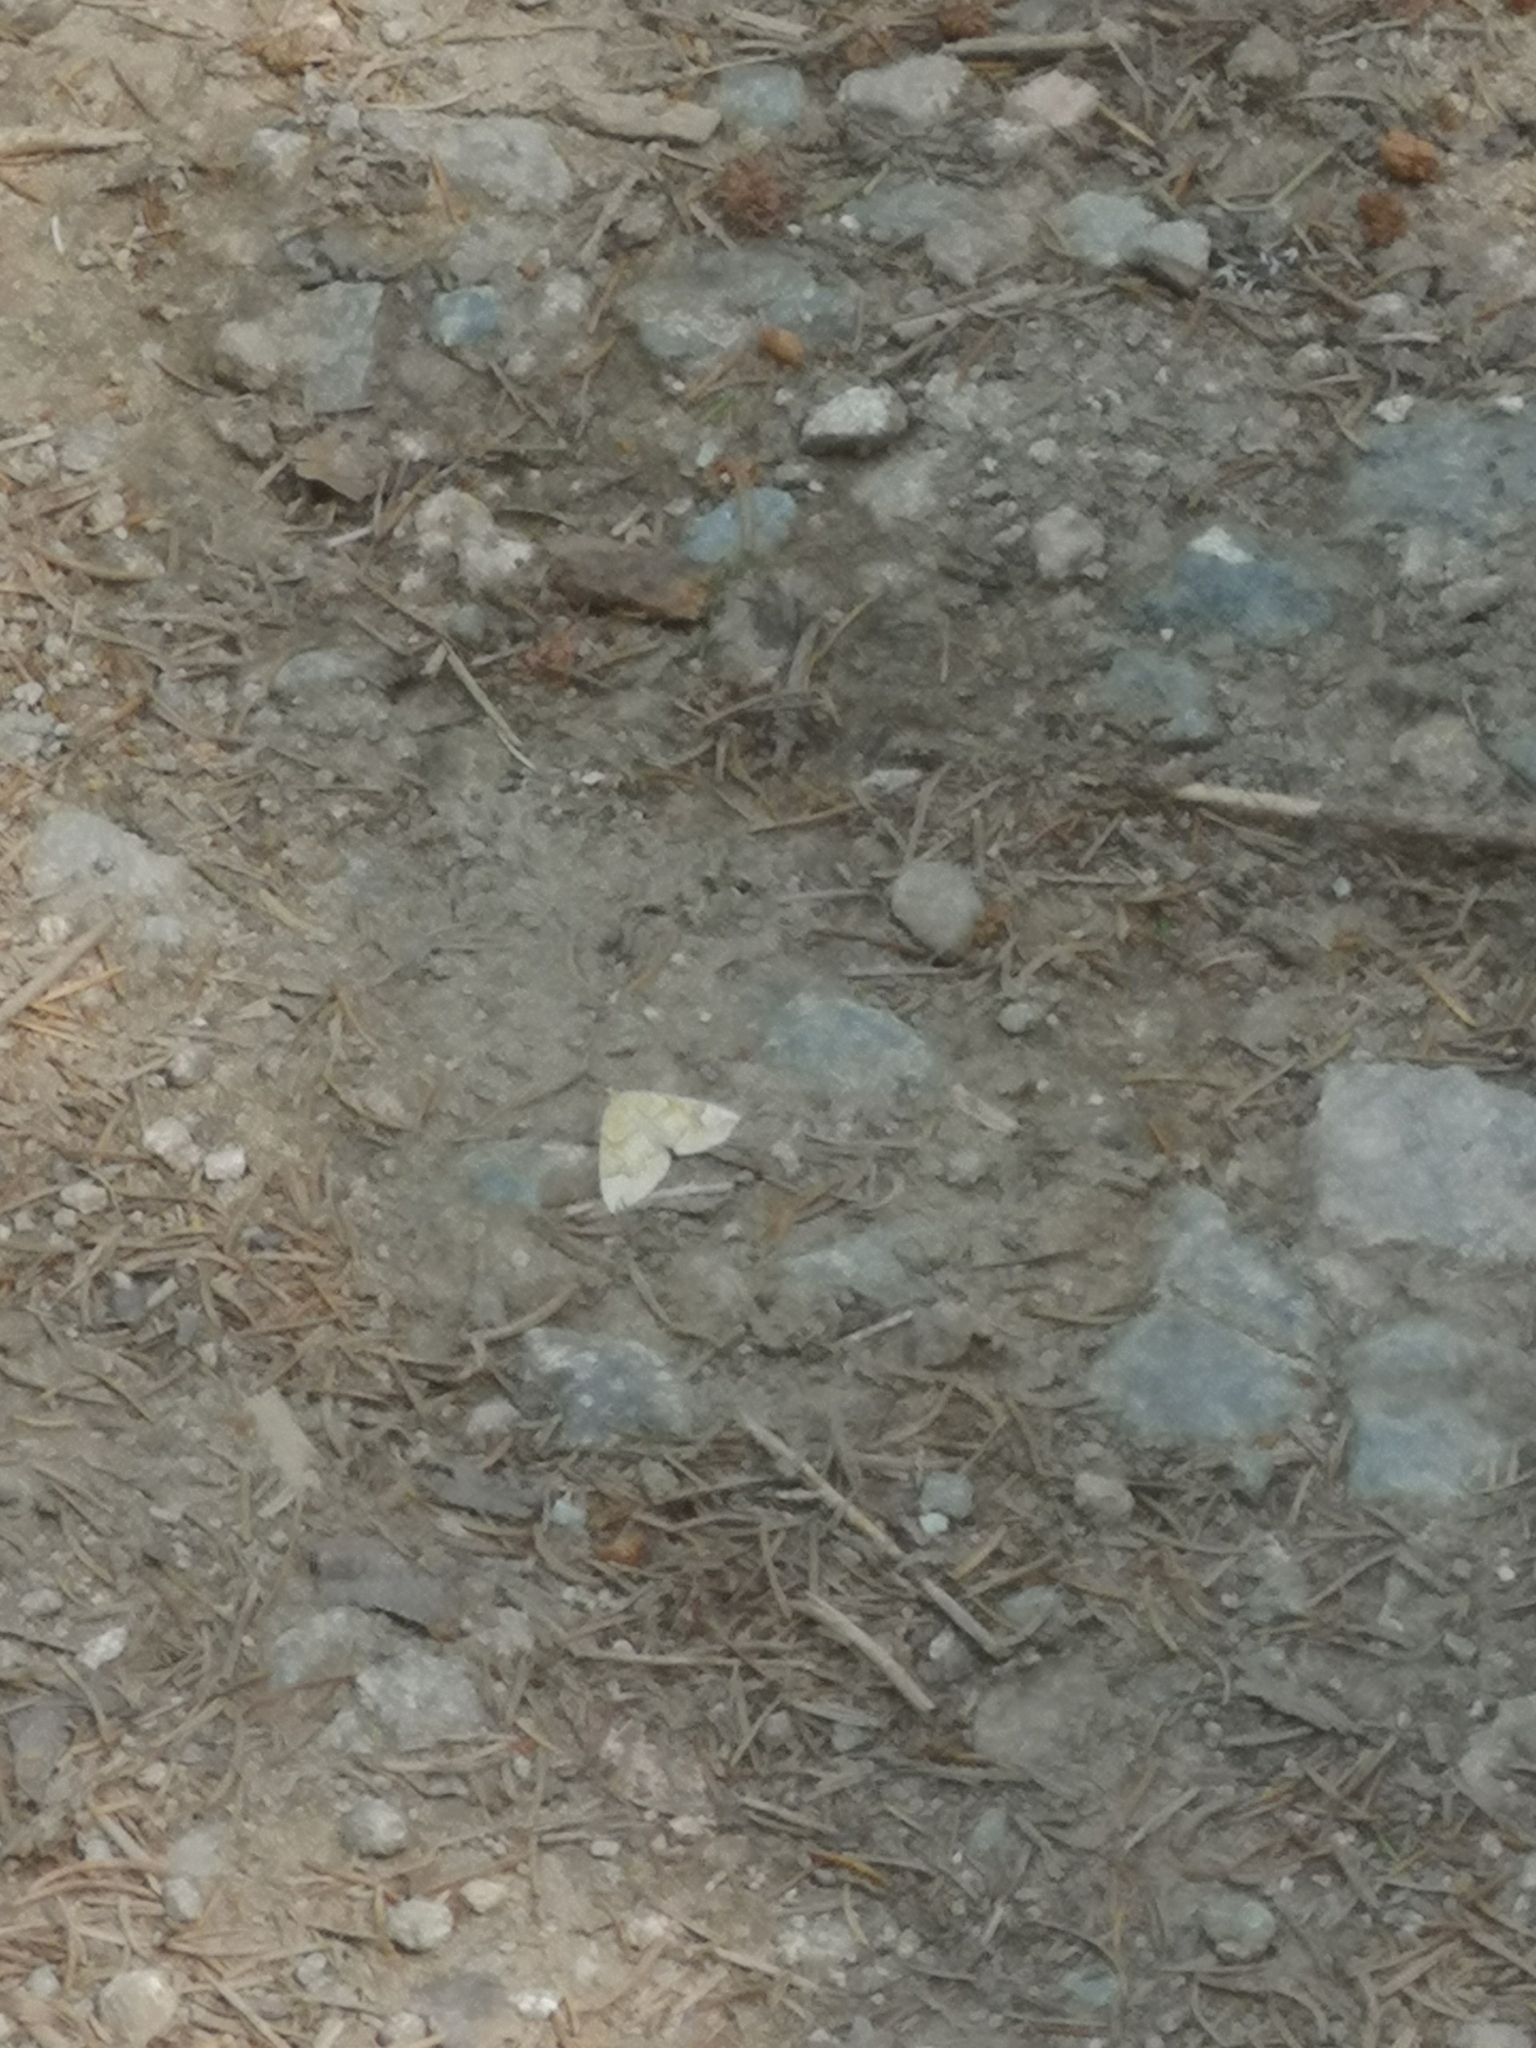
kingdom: Animalia
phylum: Arthropoda
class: Insecta
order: Lepidoptera
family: Geometridae
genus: Eulithis
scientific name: Eulithis populata
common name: Northern spinach
